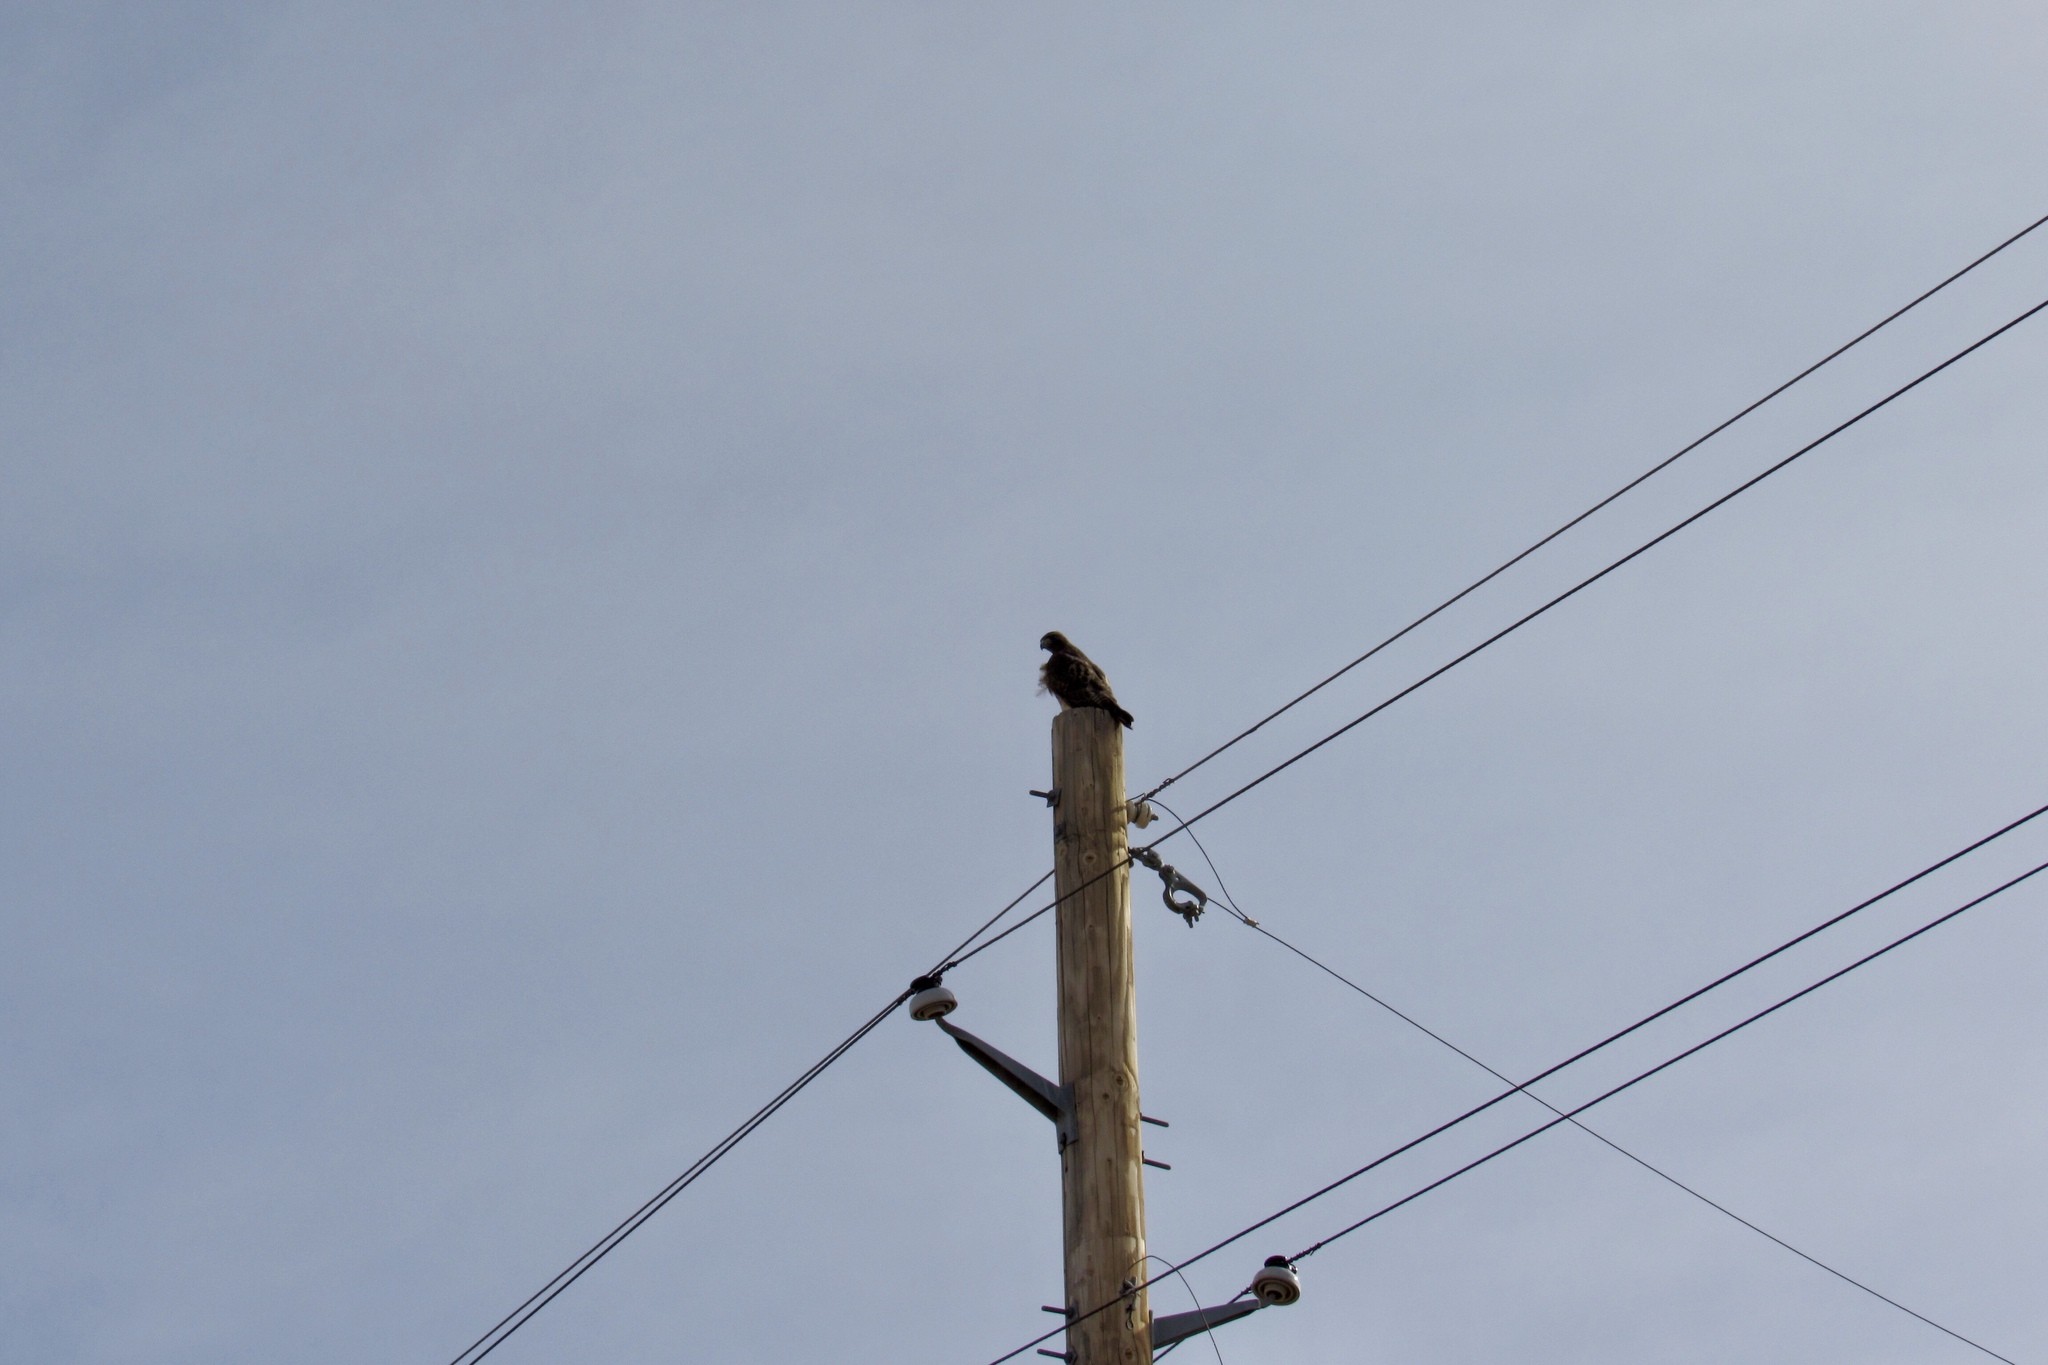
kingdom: Animalia
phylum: Chordata
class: Aves
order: Accipitriformes
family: Accipitridae
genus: Buteo
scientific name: Buteo jamaicensis
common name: Red-tailed hawk
